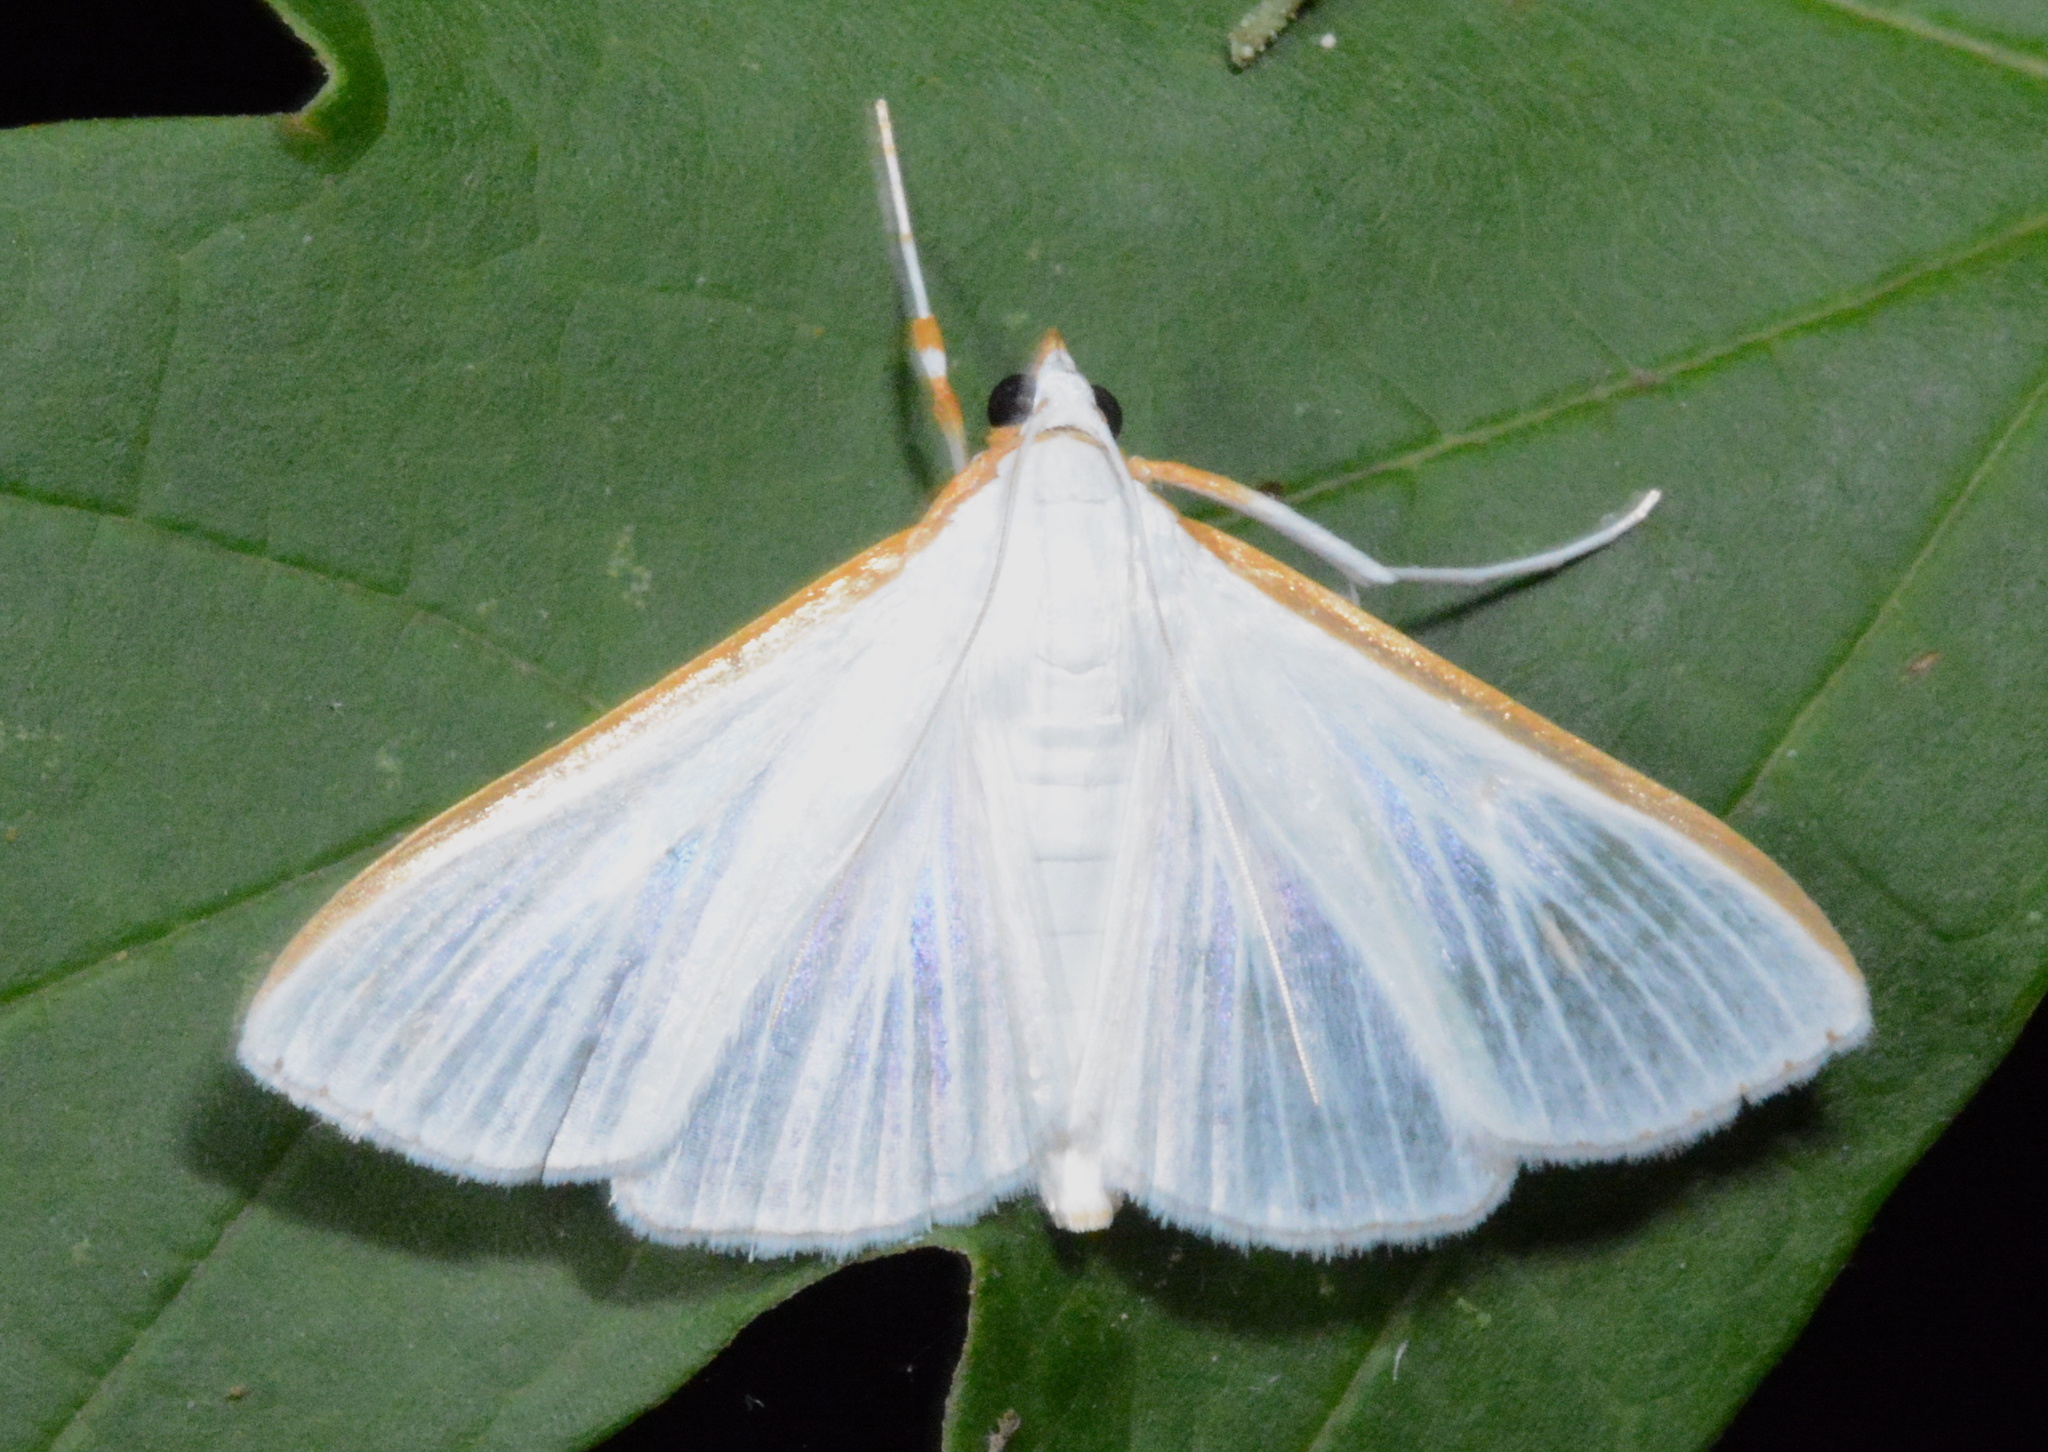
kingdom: Animalia
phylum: Arthropoda
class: Insecta
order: Lepidoptera
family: Crambidae
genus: Diaphania
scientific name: Diaphania costata
